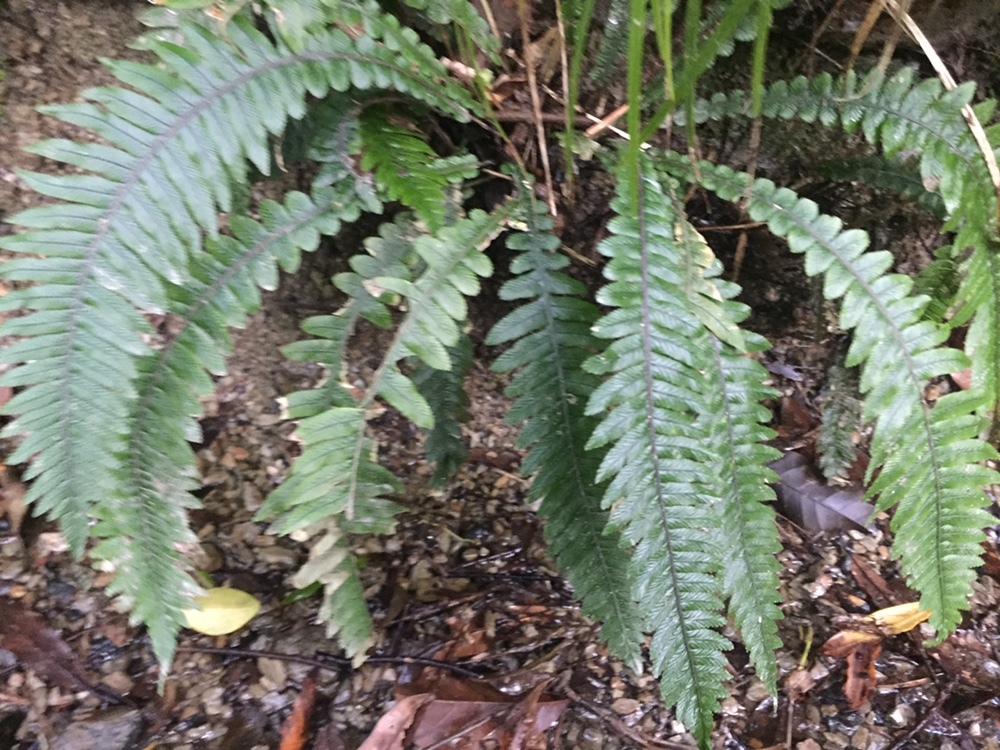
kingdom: Plantae
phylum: Tracheophyta
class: Polypodiopsida
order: Polypodiales
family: Blechnaceae
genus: Austroblechnum
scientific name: Austroblechnum lanceolatum
